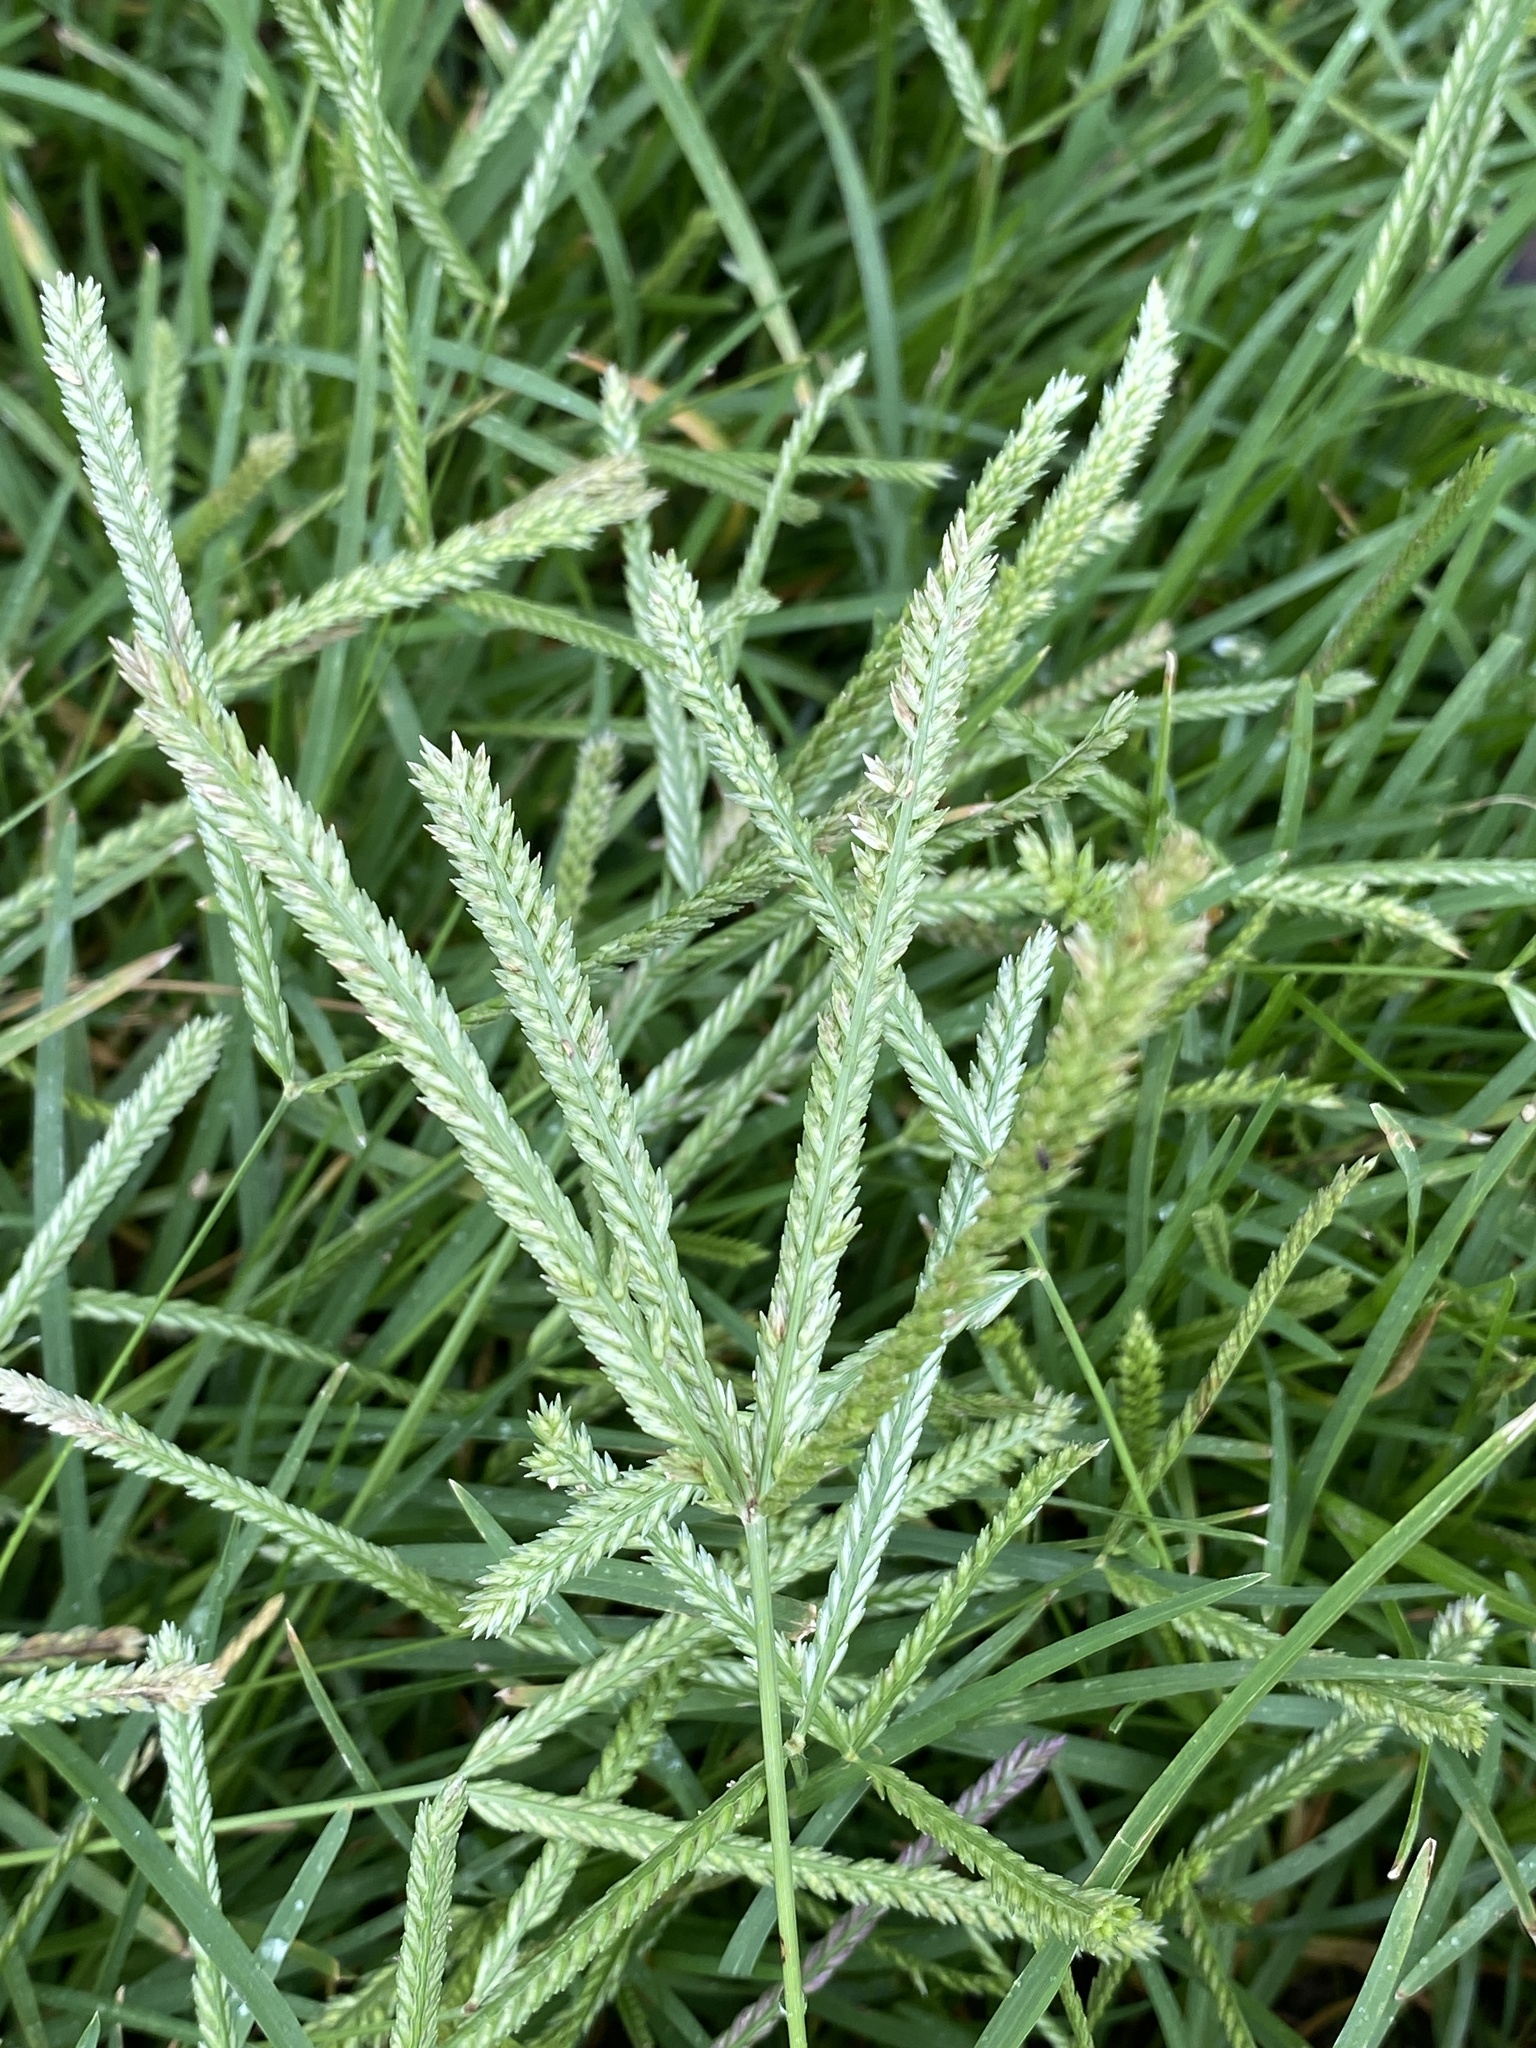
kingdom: Plantae
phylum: Tracheophyta
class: Liliopsida
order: Poales
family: Poaceae
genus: Eleusine
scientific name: Eleusine indica
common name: Yard-grass
